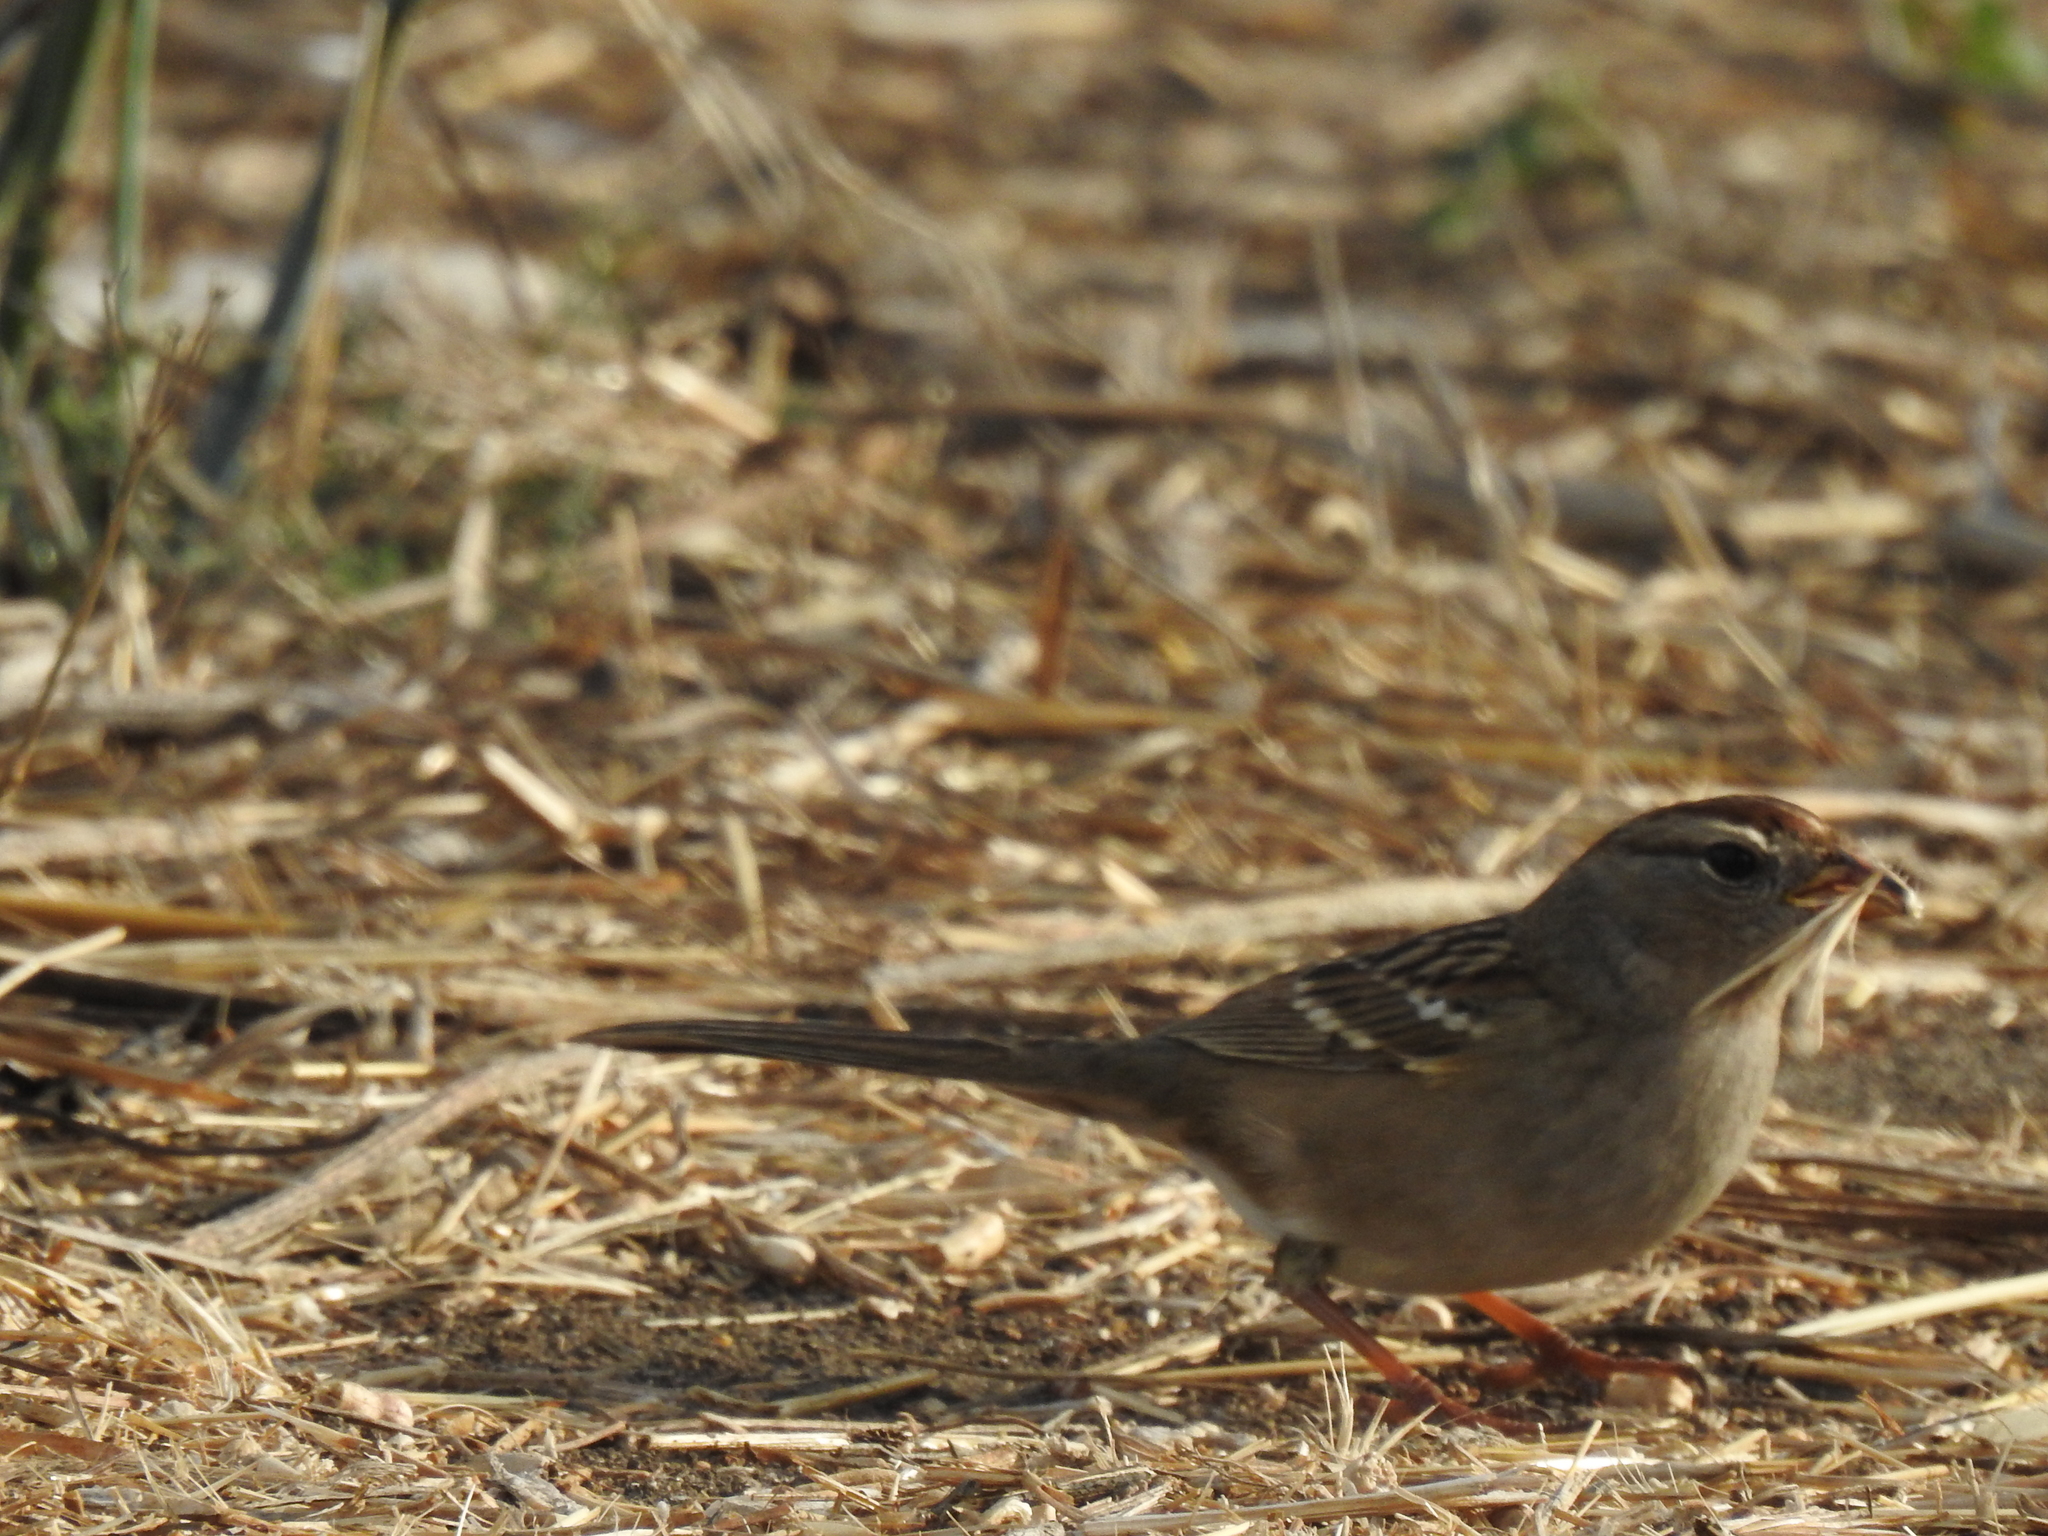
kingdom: Animalia
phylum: Chordata
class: Aves
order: Passeriformes
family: Passerellidae
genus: Zonotrichia
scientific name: Zonotrichia atricapilla
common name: Golden-crowned sparrow
